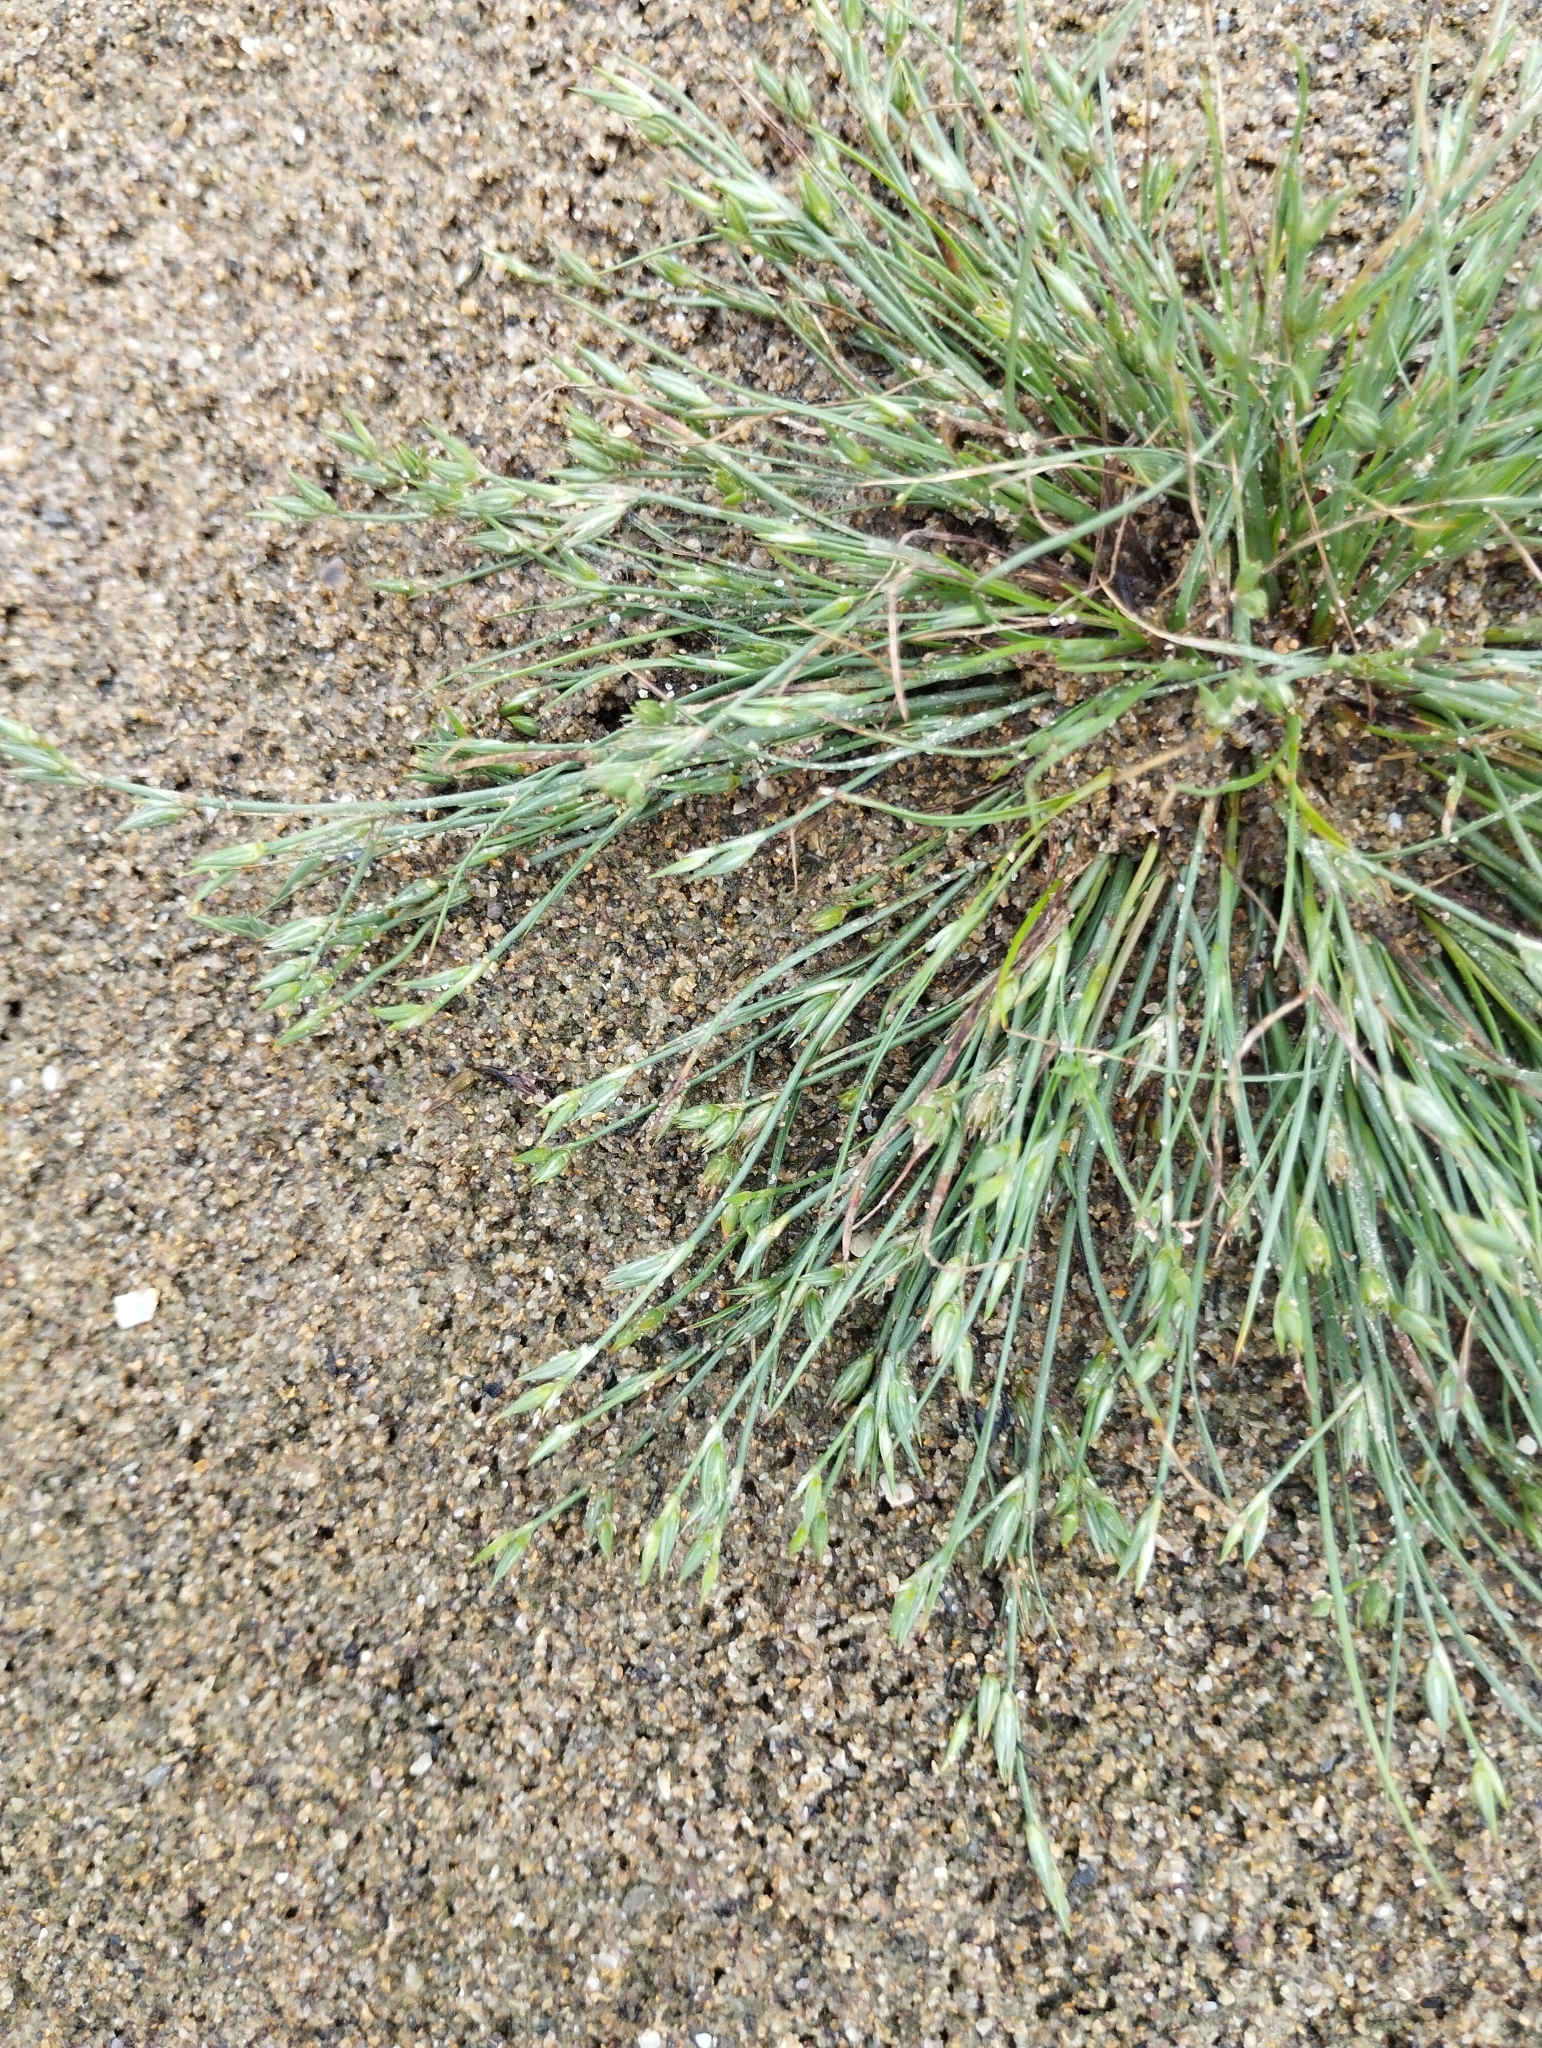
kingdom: Plantae
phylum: Tracheophyta
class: Liliopsida
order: Poales
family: Juncaceae
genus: Juncus
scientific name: Juncus bufonius
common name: Toad rush
